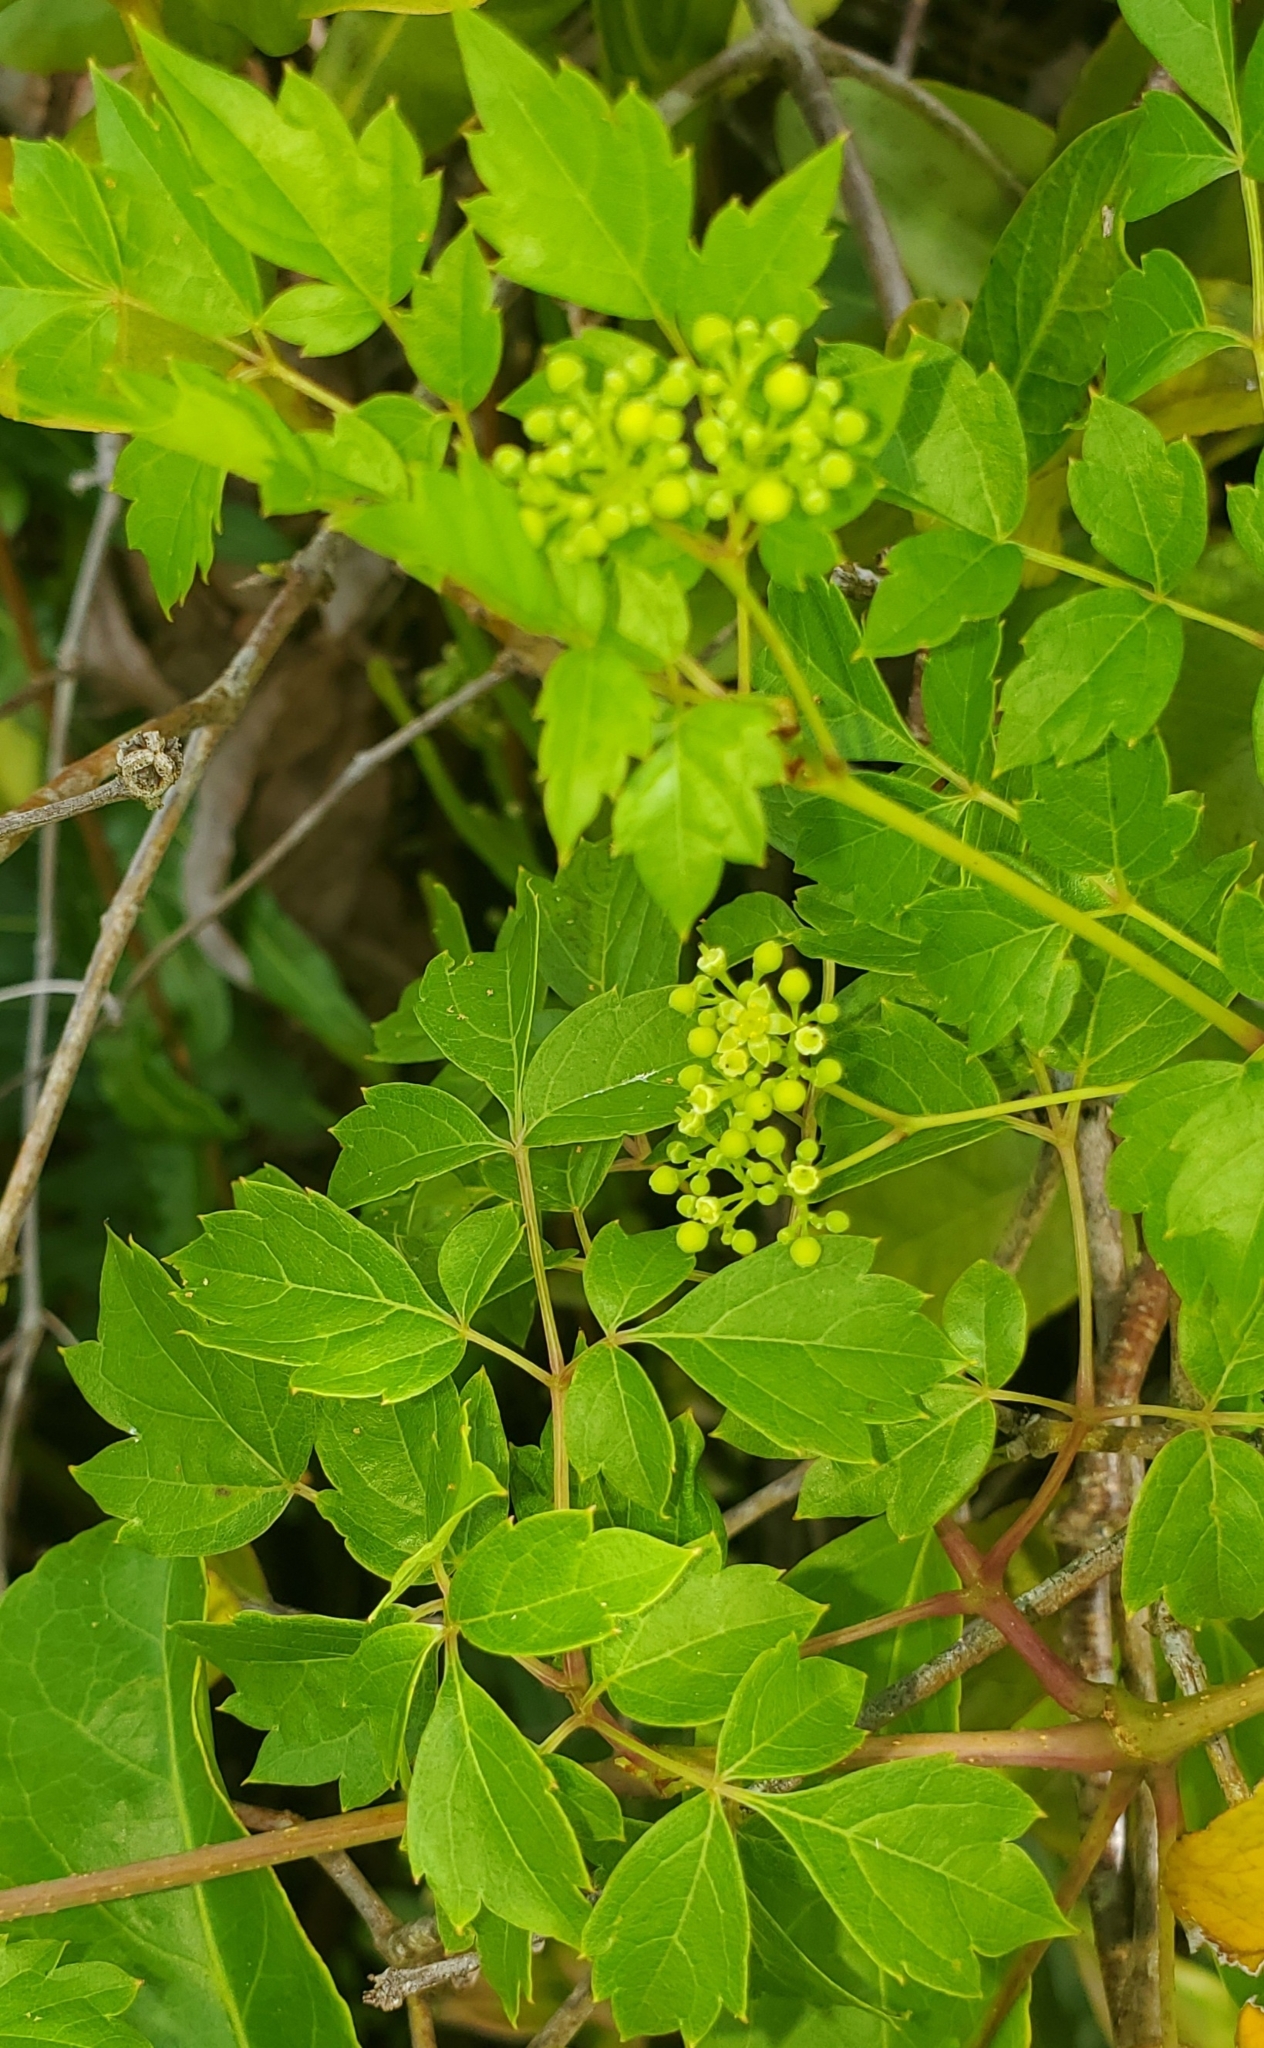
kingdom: Plantae
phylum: Tracheophyta
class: Magnoliopsida
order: Vitales
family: Vitaceae
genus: Nekemias
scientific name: Nekemias arborea
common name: Peppervine
